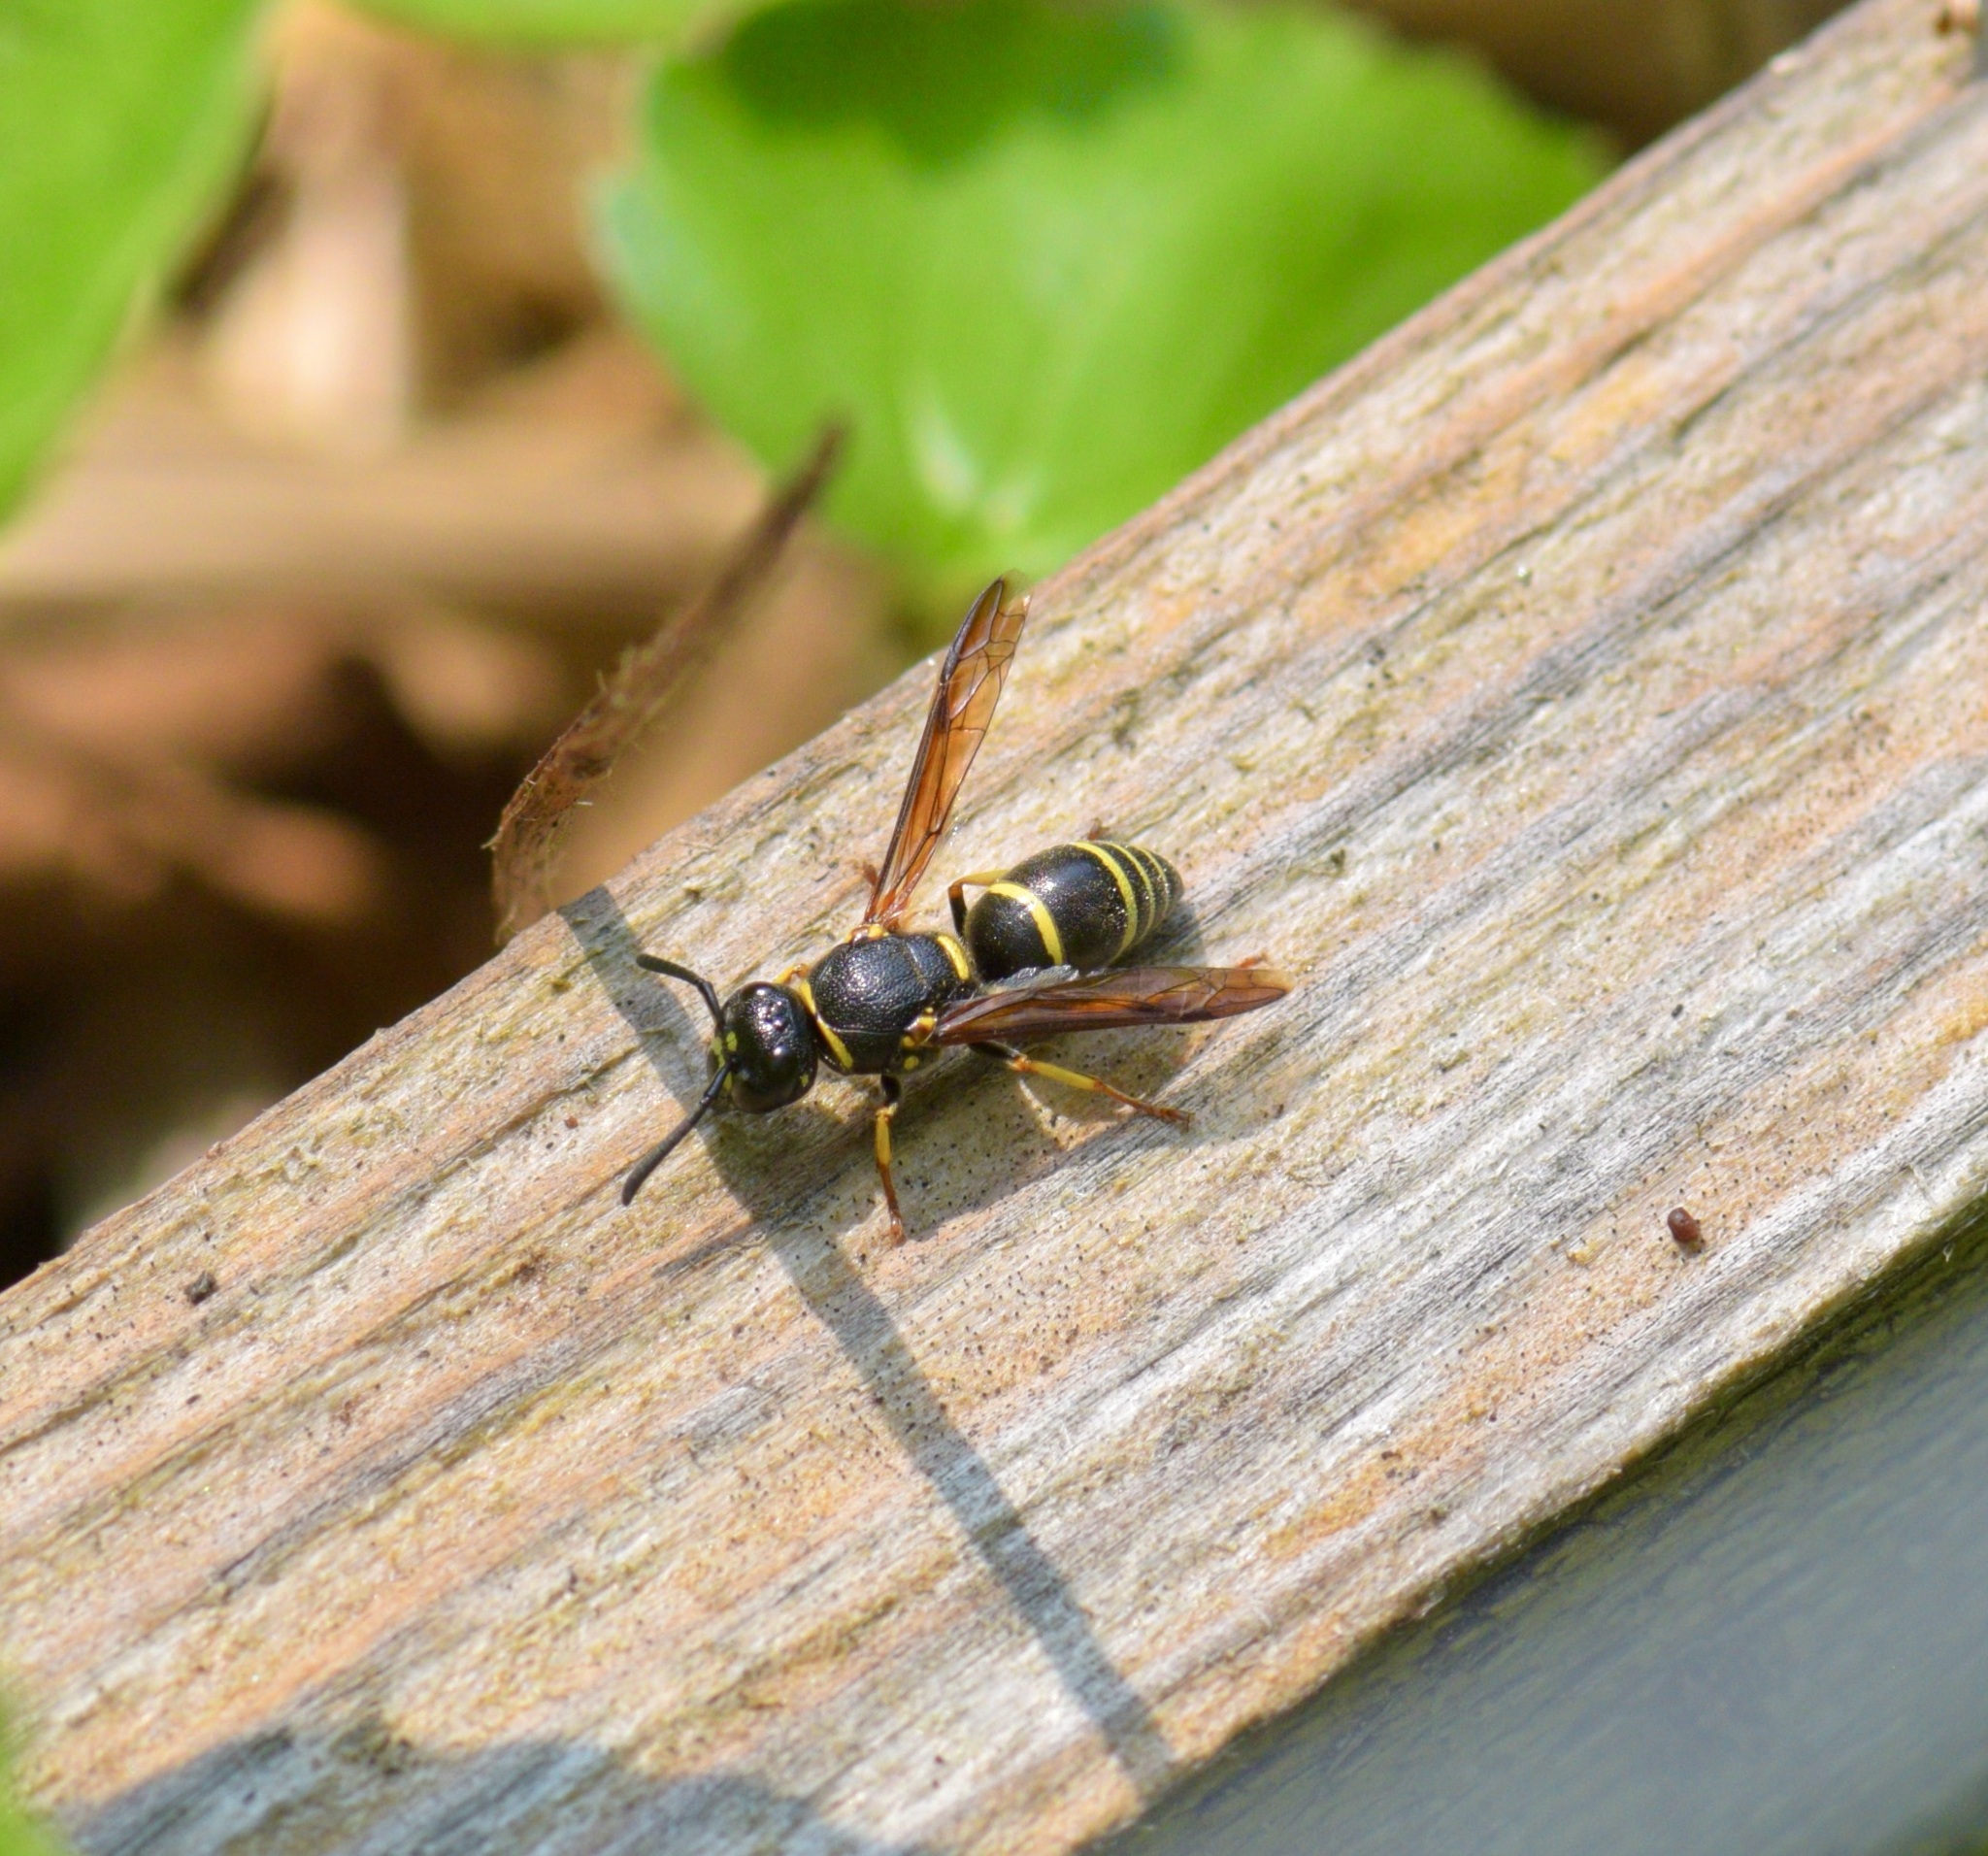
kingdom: Animalia
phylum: Arthropoda
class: Insecta
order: Hymenoptera
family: Eumenidae
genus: Euodynerus
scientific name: Euodynerus foraminatus
